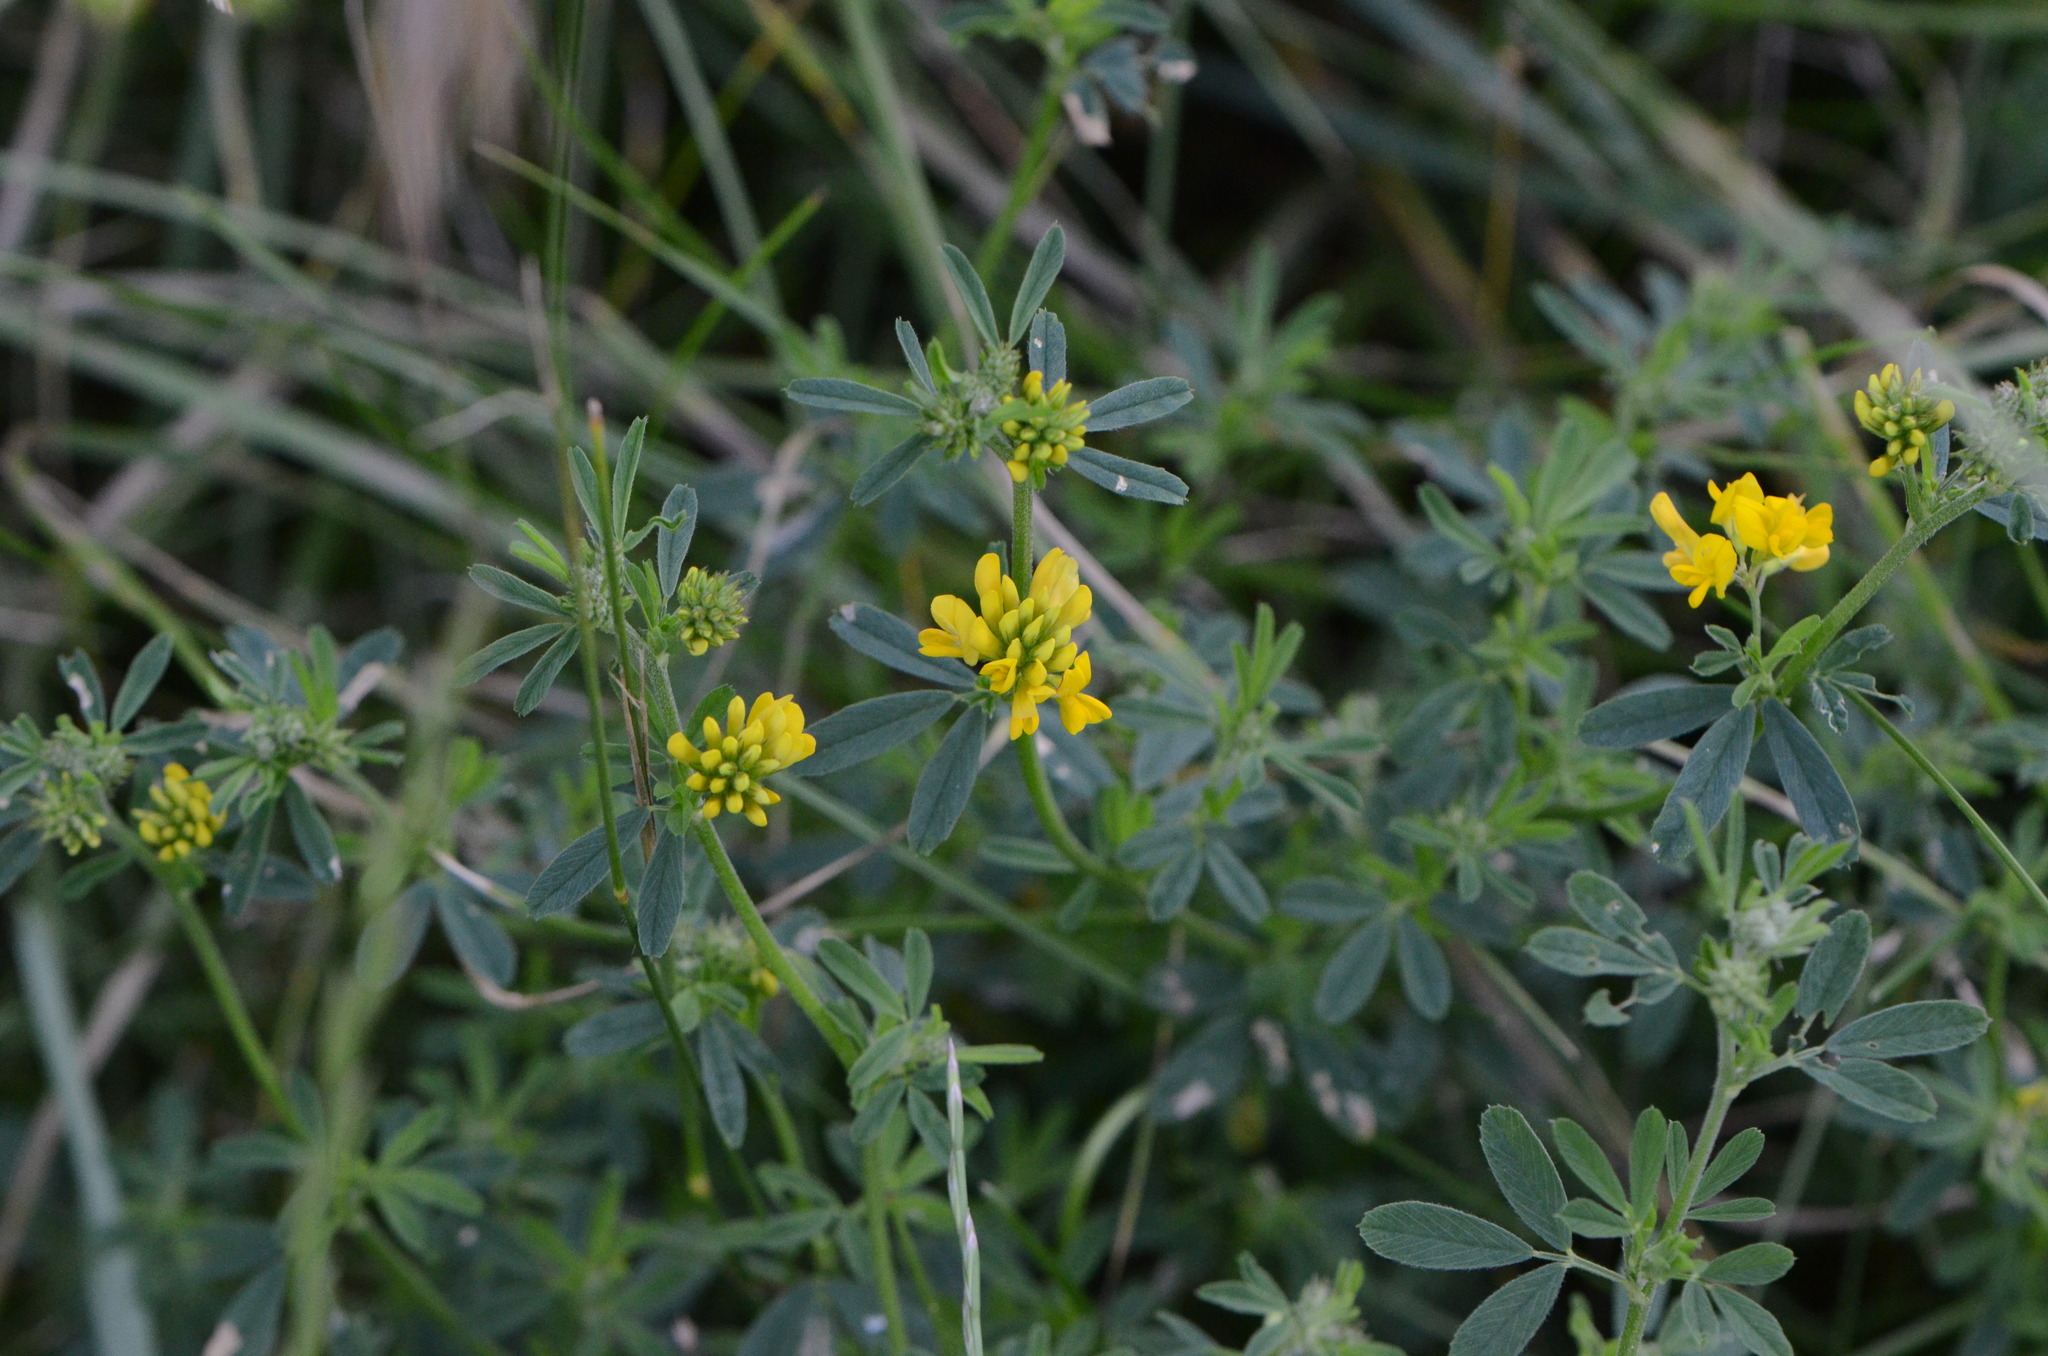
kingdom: Plantae
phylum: Tracheophyta
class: Magnoliopsida
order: Fabales
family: Fabaceae
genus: Medicago
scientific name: Medicago falcata
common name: Sickle medick
